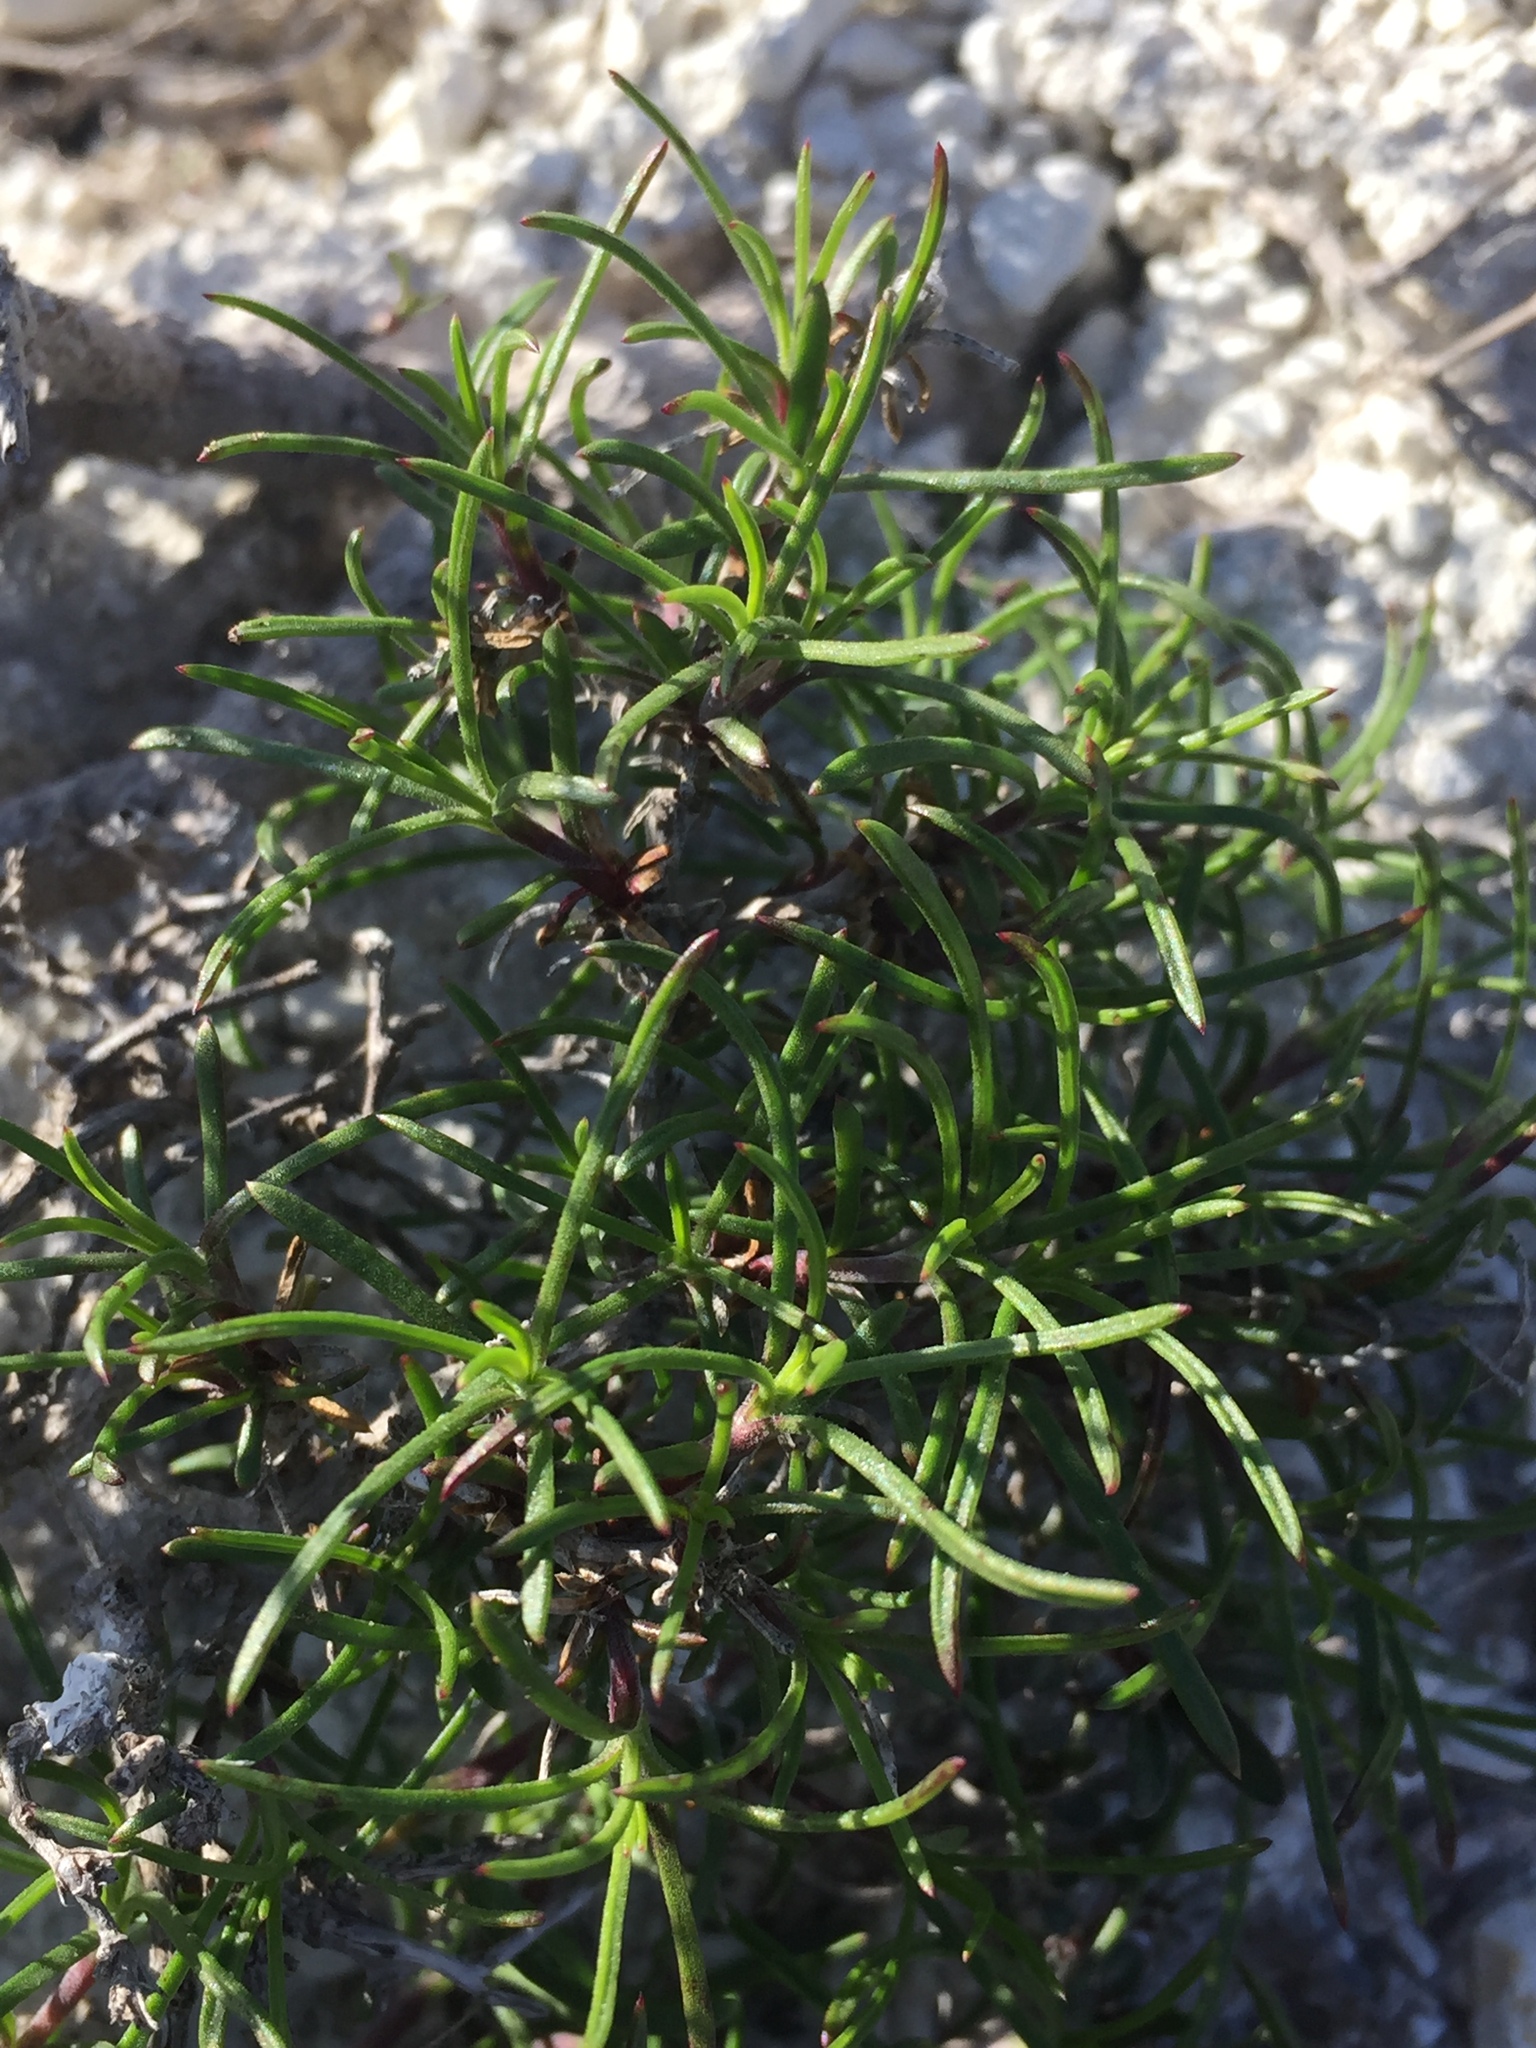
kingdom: Plantae
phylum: Tracheophyta
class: Magnoliopsida
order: Lamiales
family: Lamiaceae
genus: Hyssopus
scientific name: Hyssopus officinalis
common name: Hyssop
